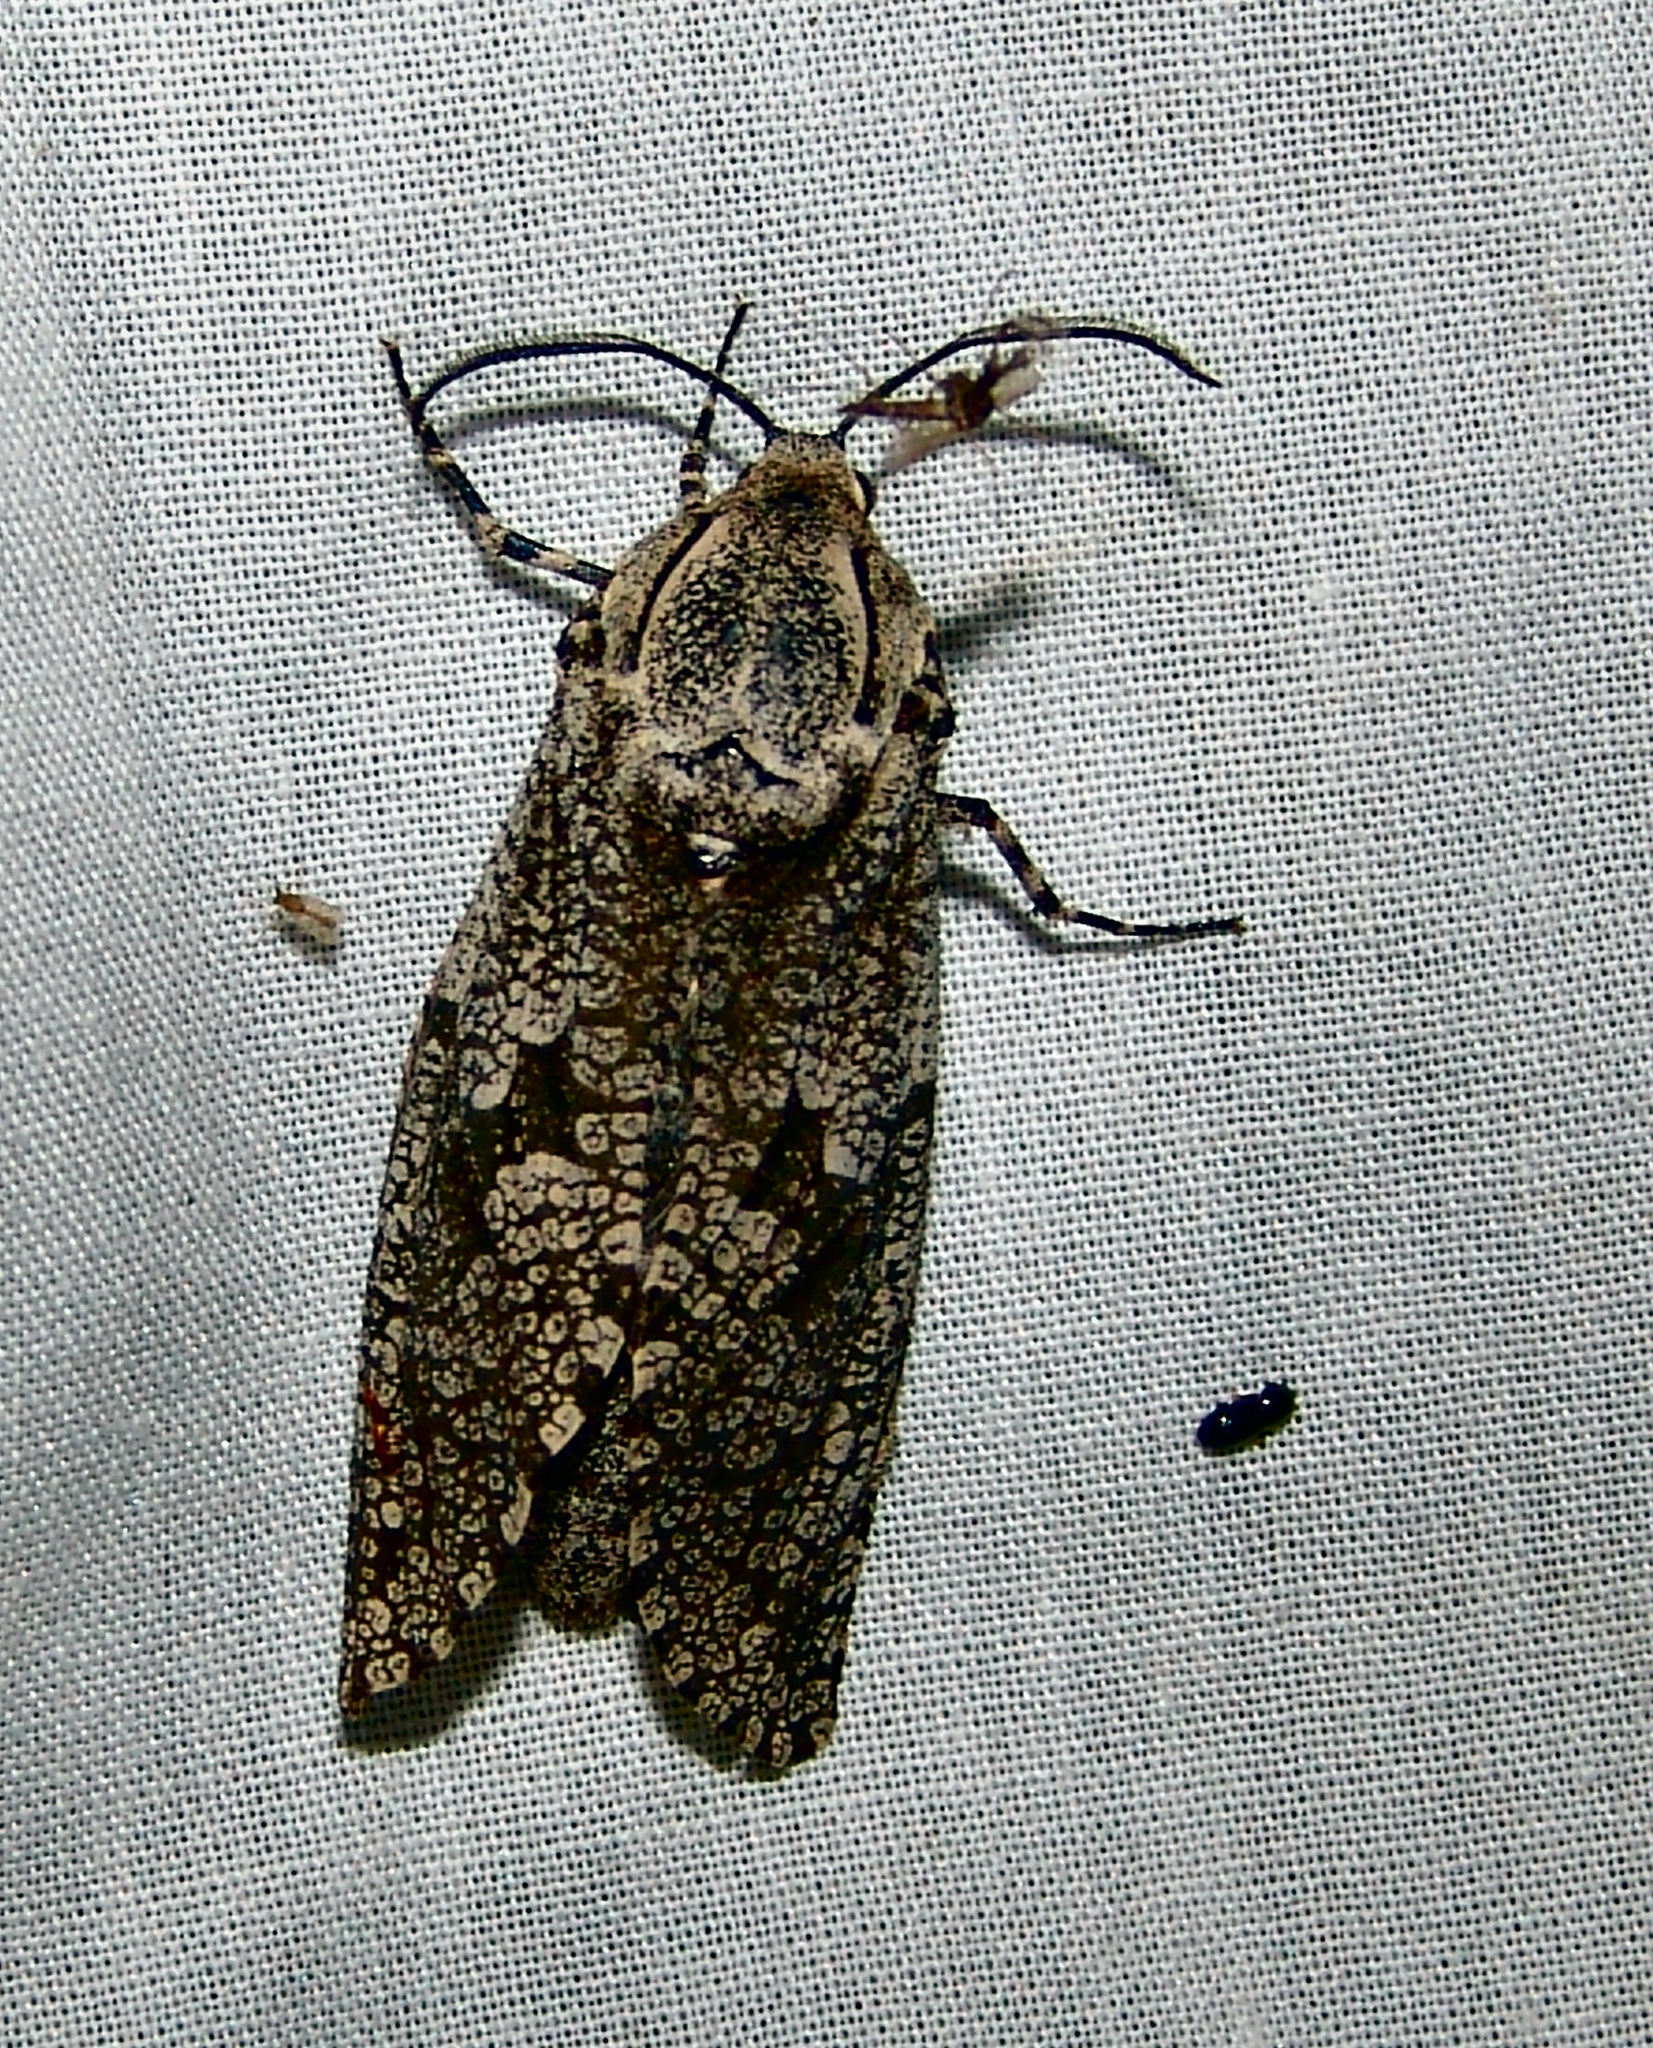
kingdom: Animalia
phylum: Arthropoda
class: Insecta
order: Lepidoptera
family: Cossidae
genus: Prionoxystus
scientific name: Prionoxystus robiniae
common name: Carpenterworm
